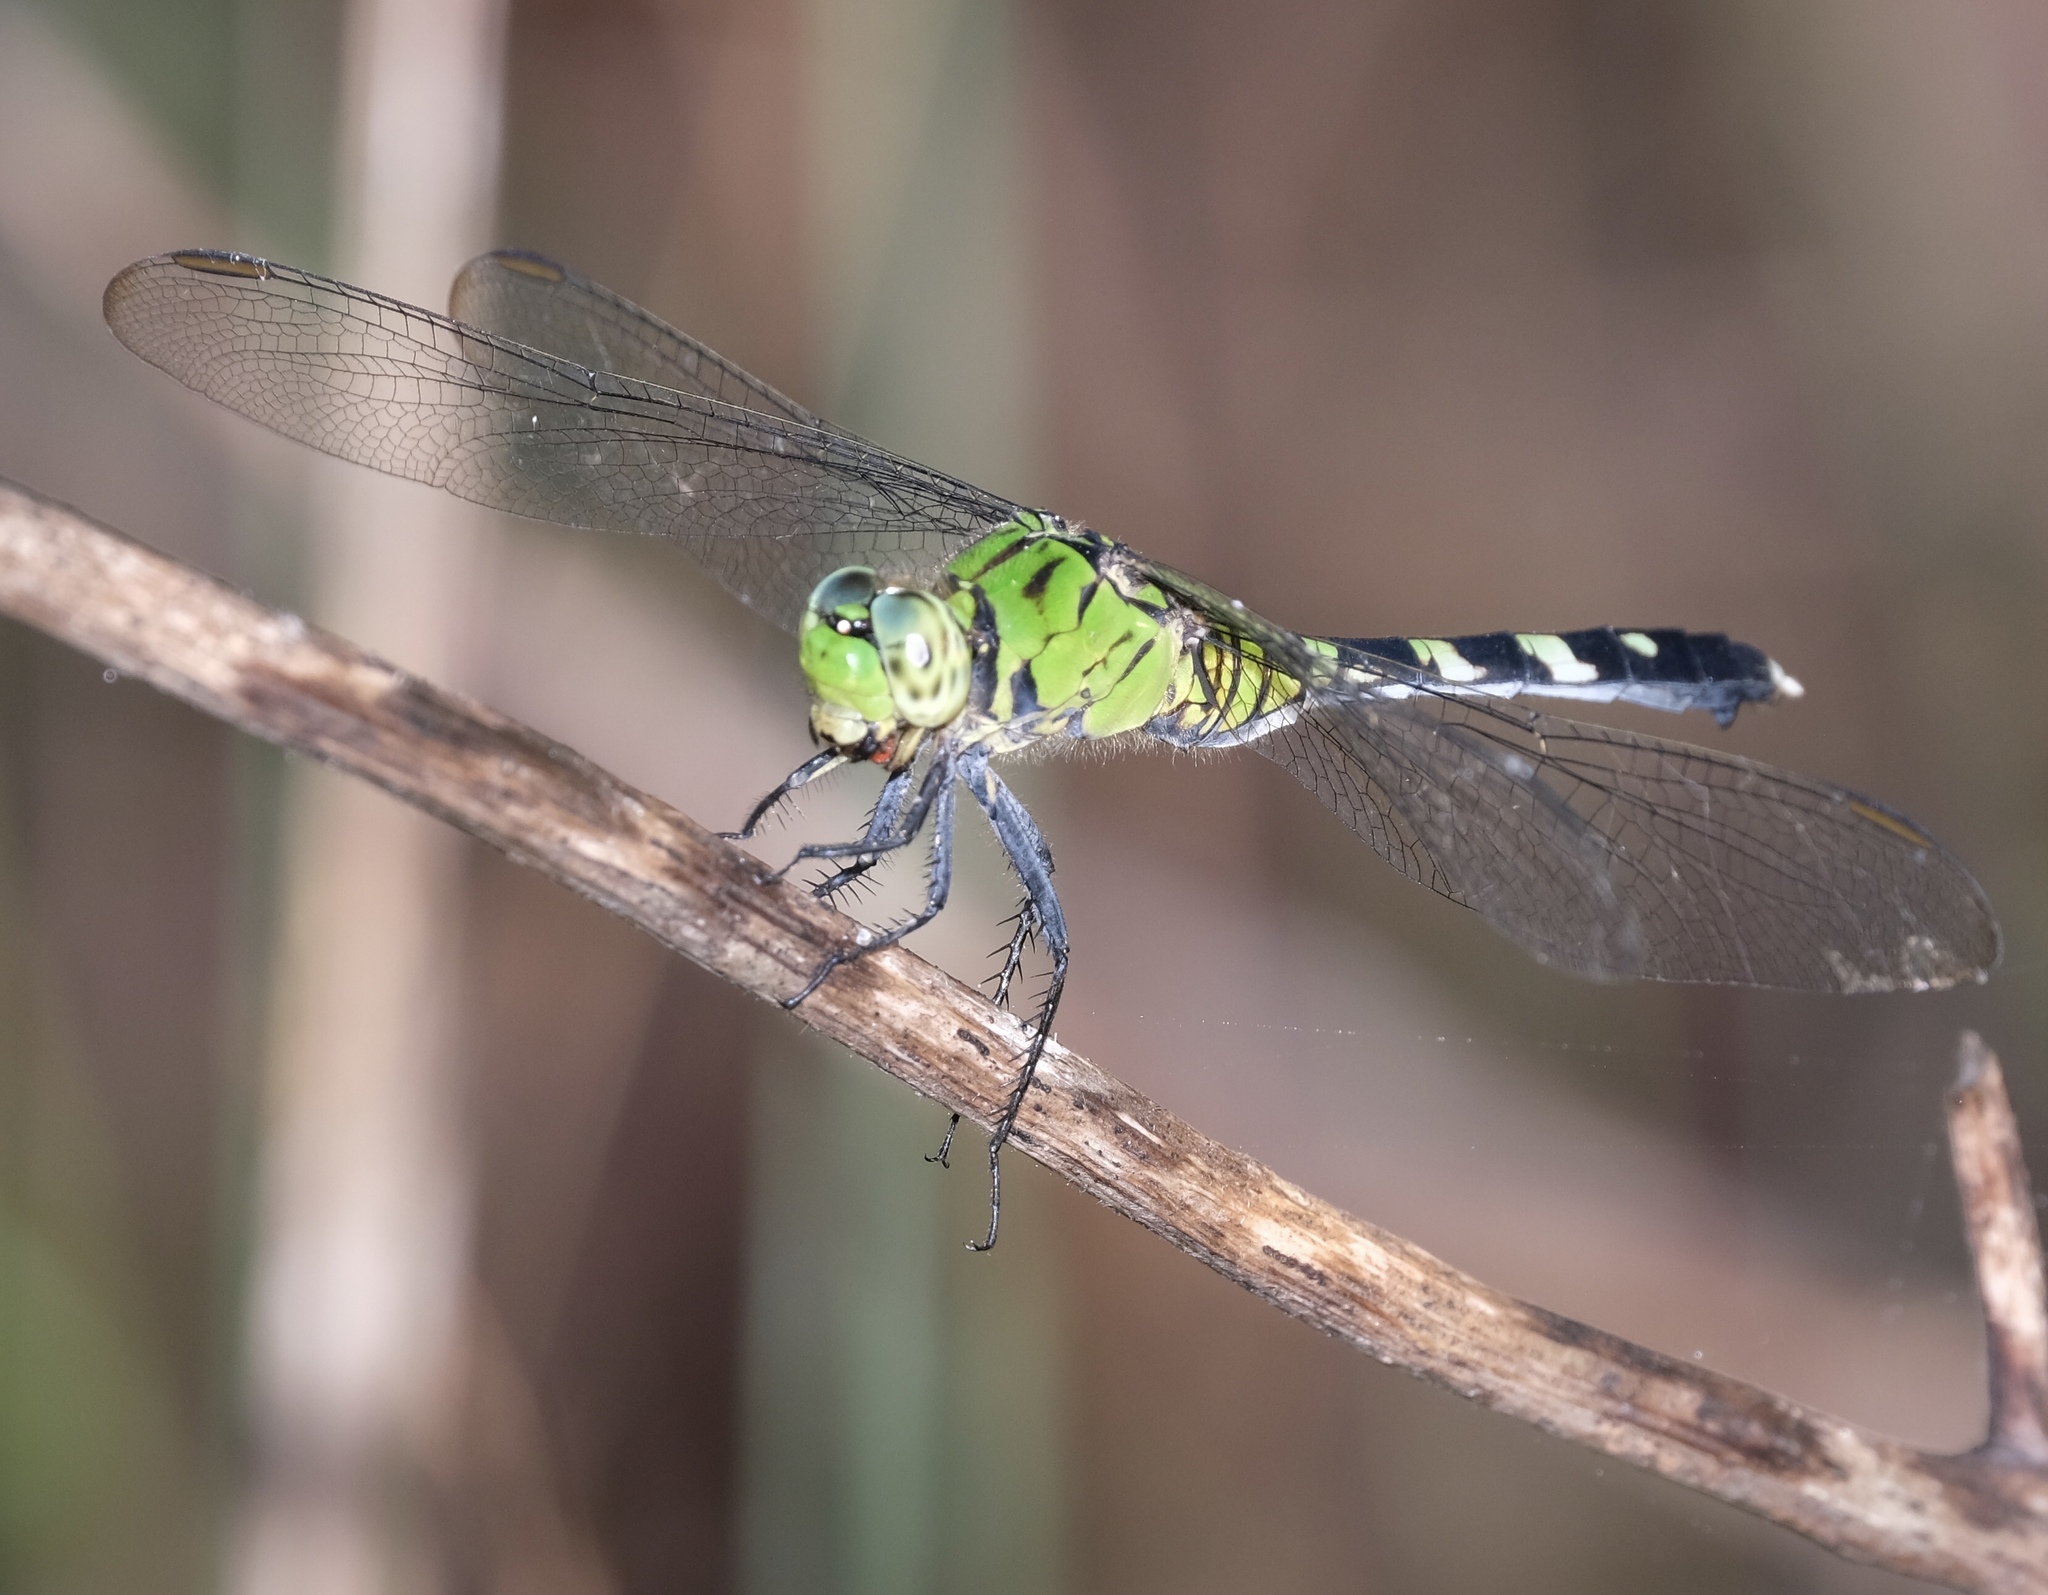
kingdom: Animalia
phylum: Arthropoda
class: Insecta
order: Odonata
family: Libellulidae
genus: Erythemis
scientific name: Erythemis simplicicollis
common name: Eastern pondhawk
